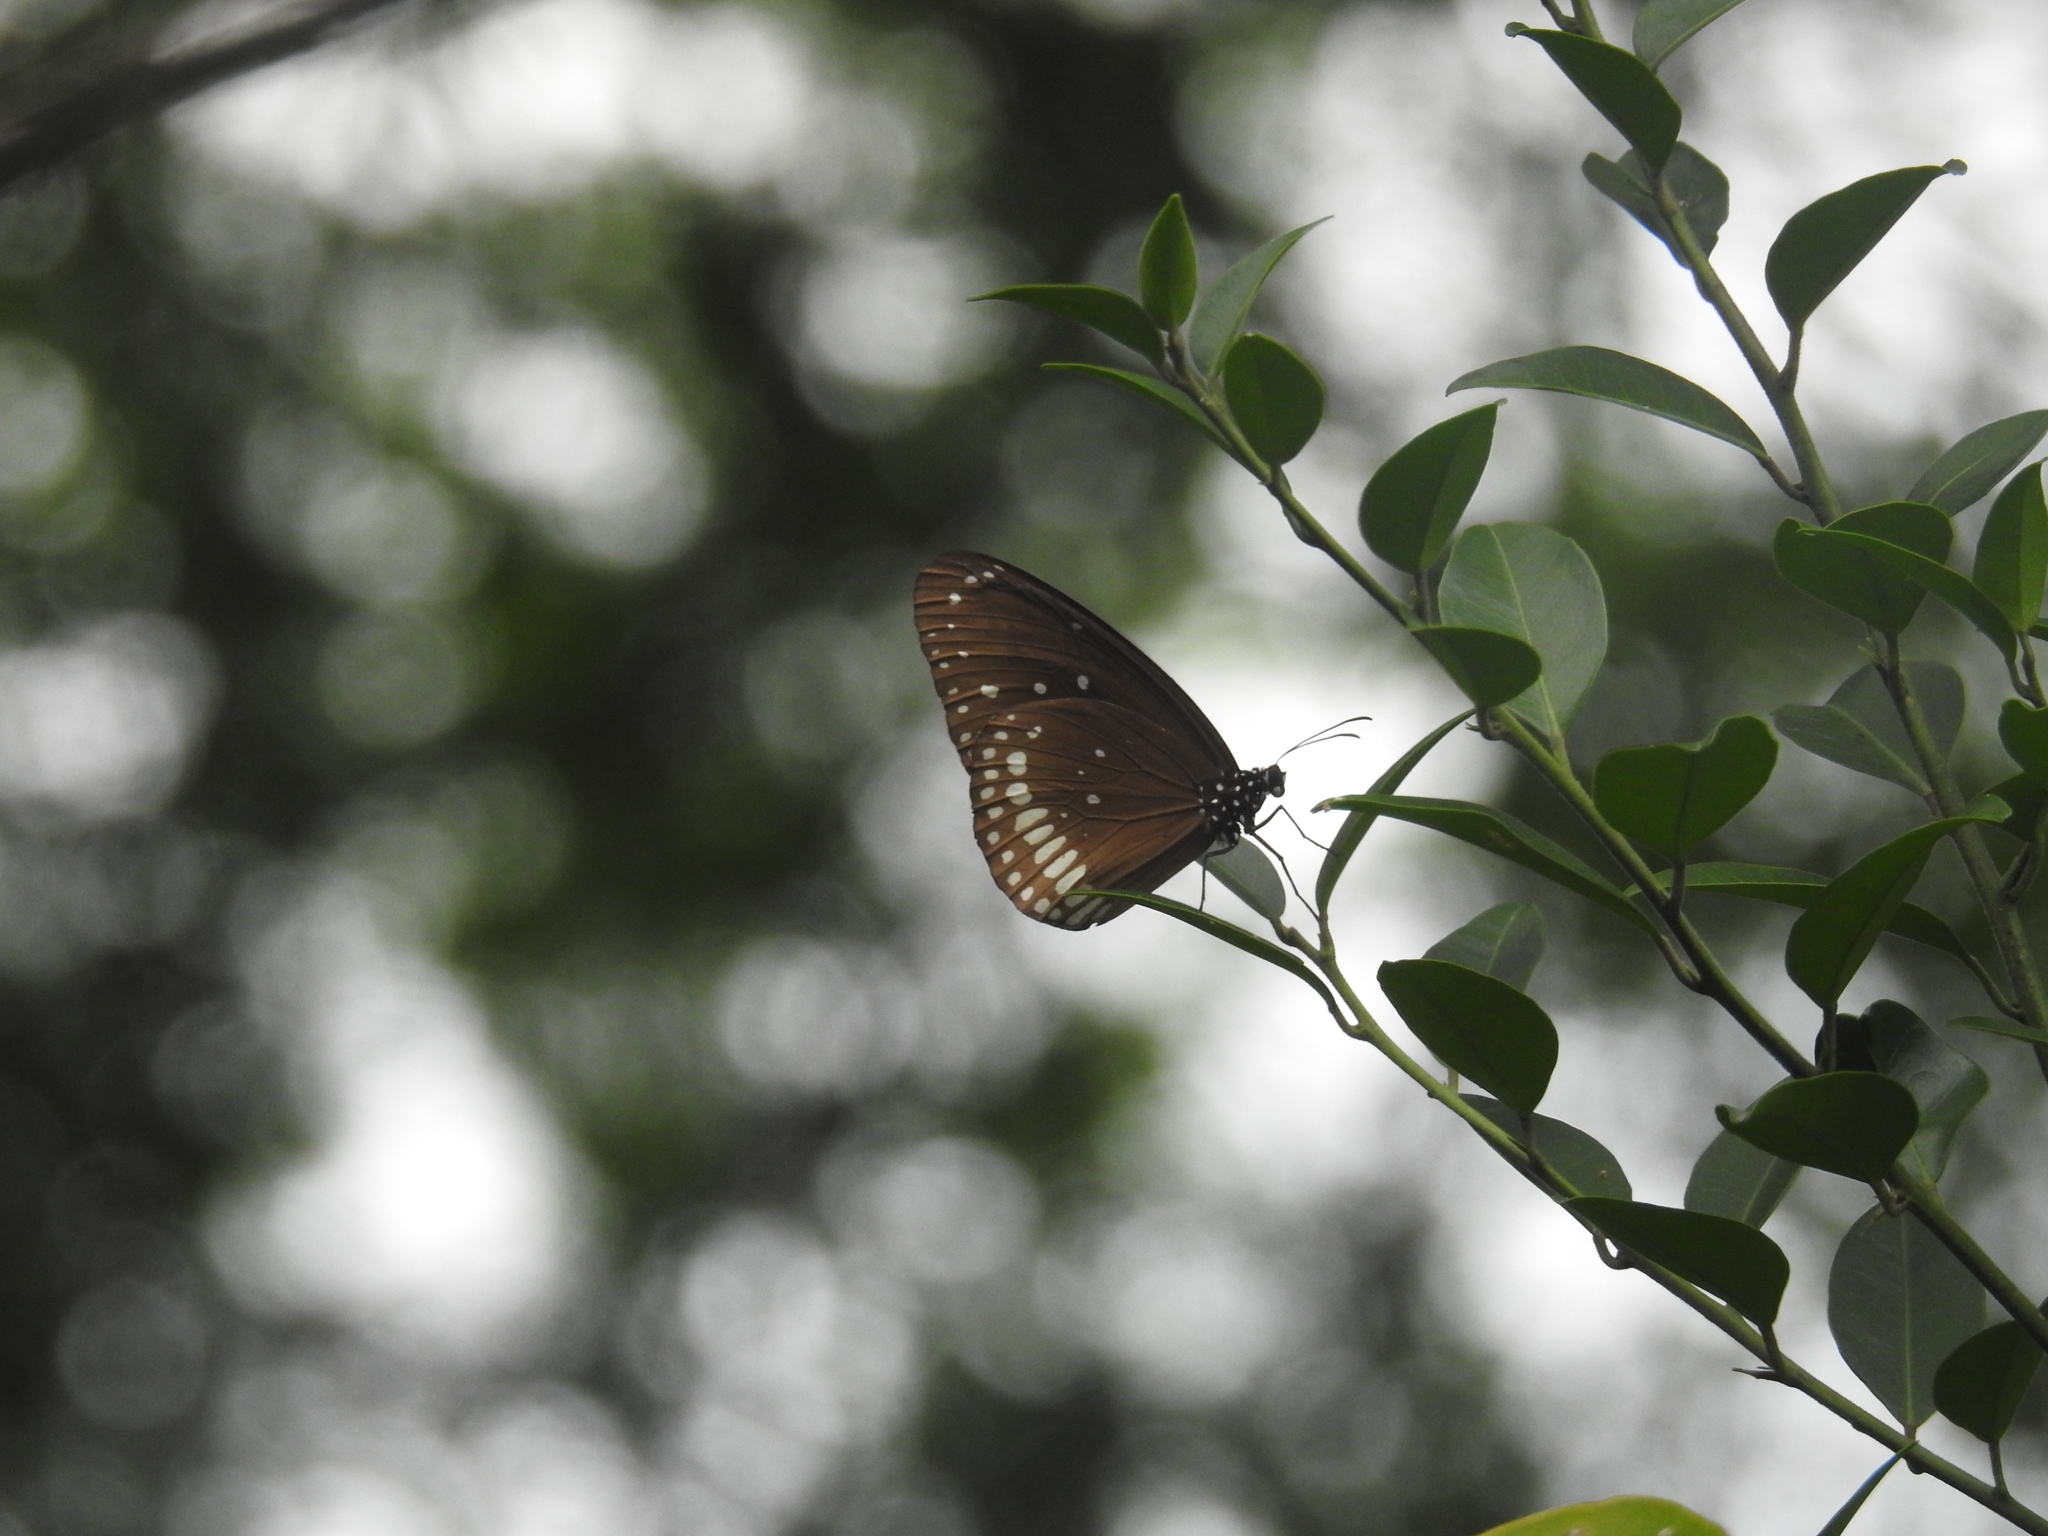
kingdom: Animalia
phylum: Arthropoda
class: Insecta
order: Lepidoptera
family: Nymphalidae
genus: Euploea
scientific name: Euploea core
